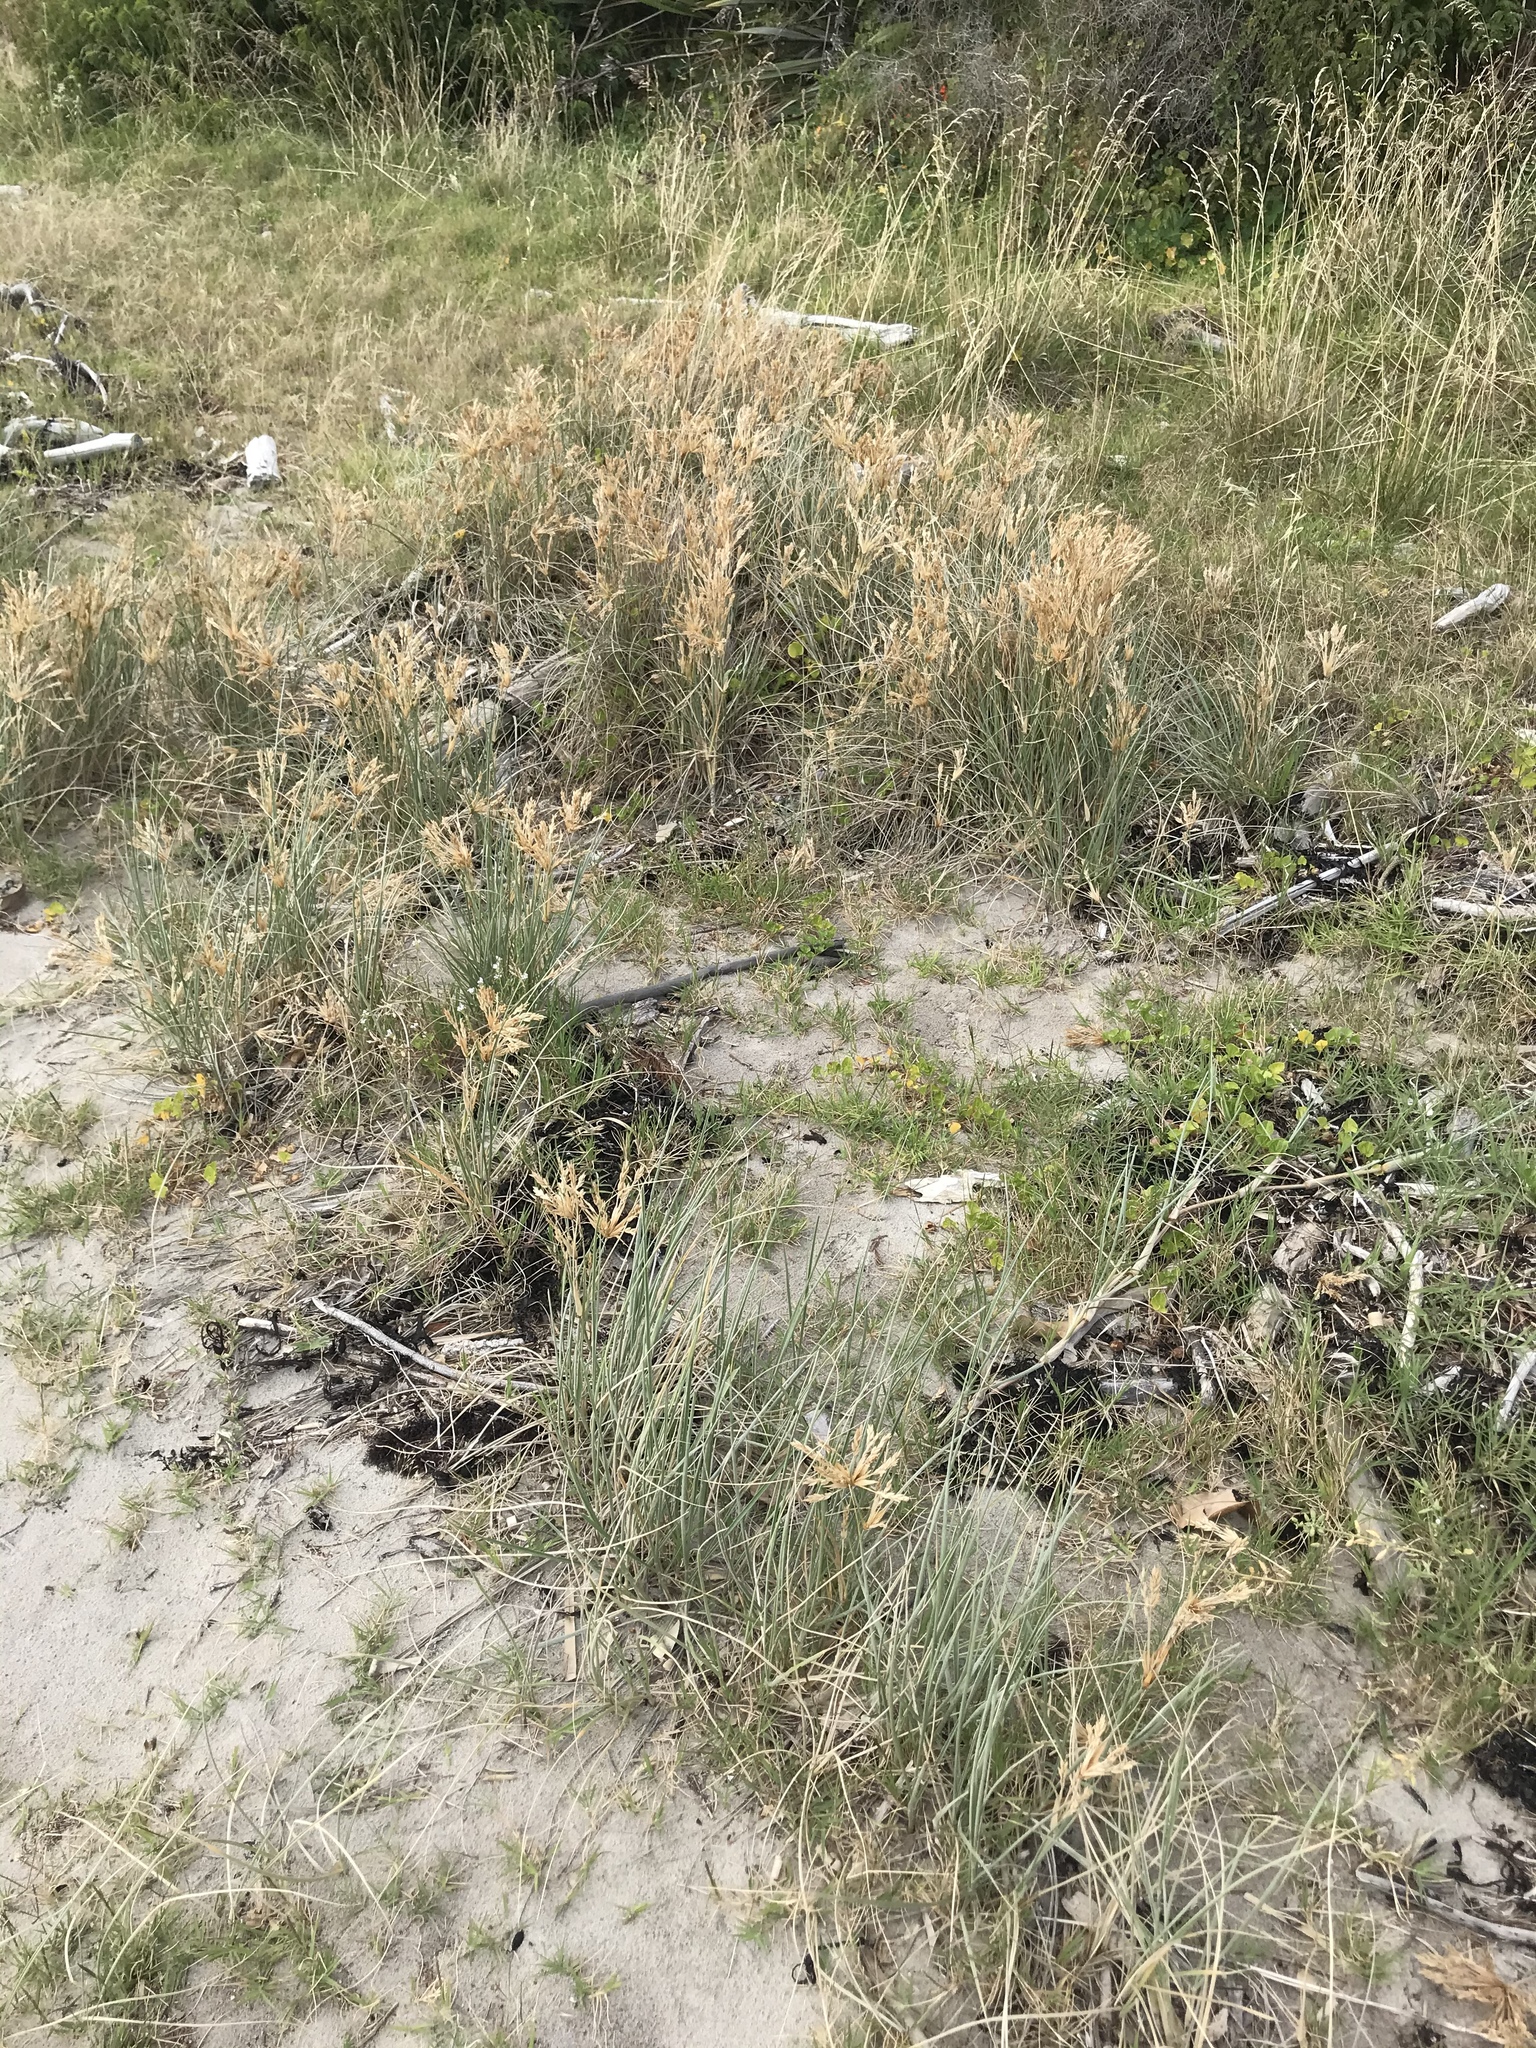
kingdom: Plantae
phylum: Tracheophyta
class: Liliopsida
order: Poales
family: Poaceae
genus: Spinifex
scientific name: Spinifex sericeus
